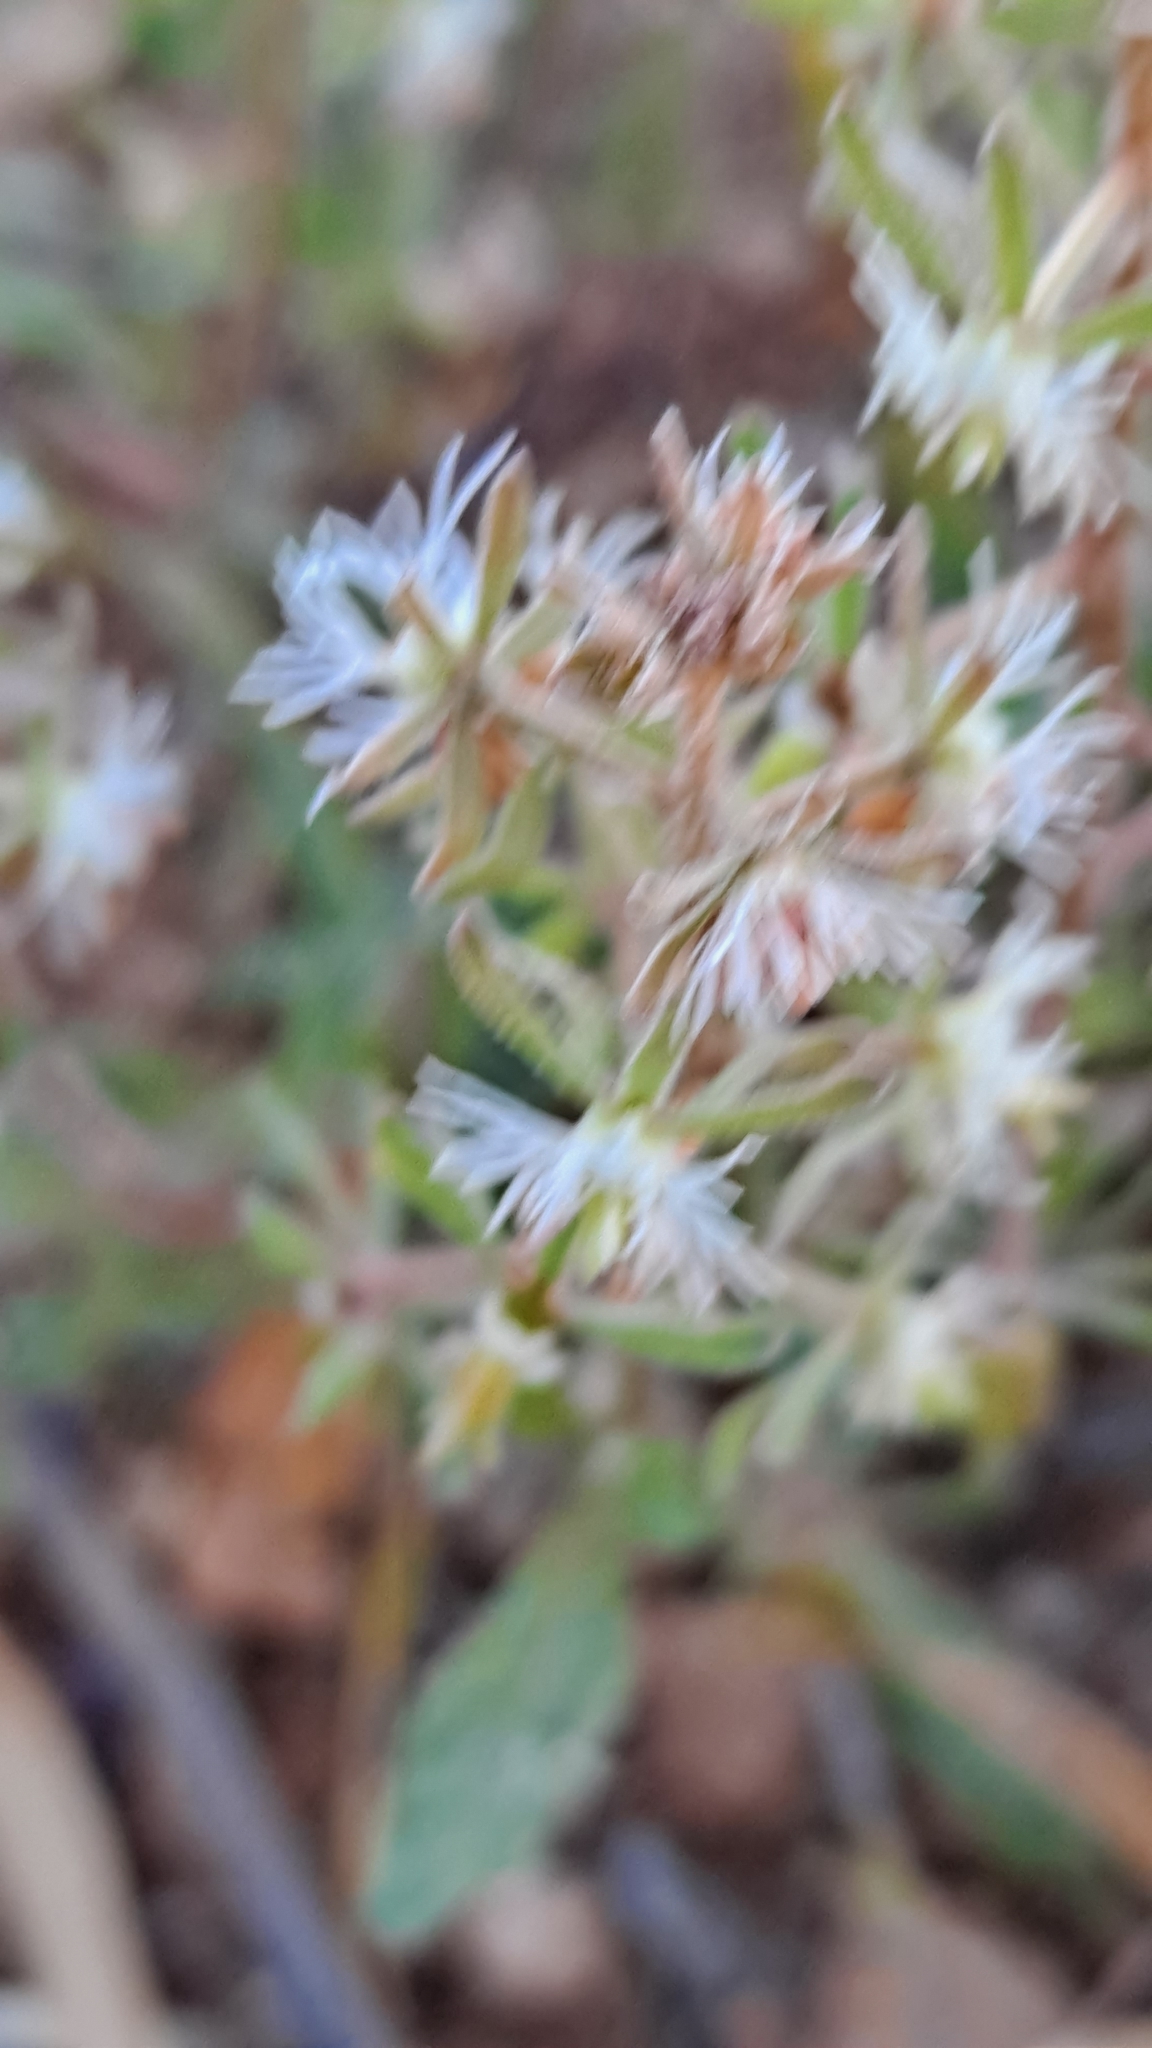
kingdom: Plantae
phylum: Tracheophyta
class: Magnoliopsida
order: Brassicales
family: Resedaceae
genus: Reseda
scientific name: Reseda phyteuma
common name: Corn mignonette
